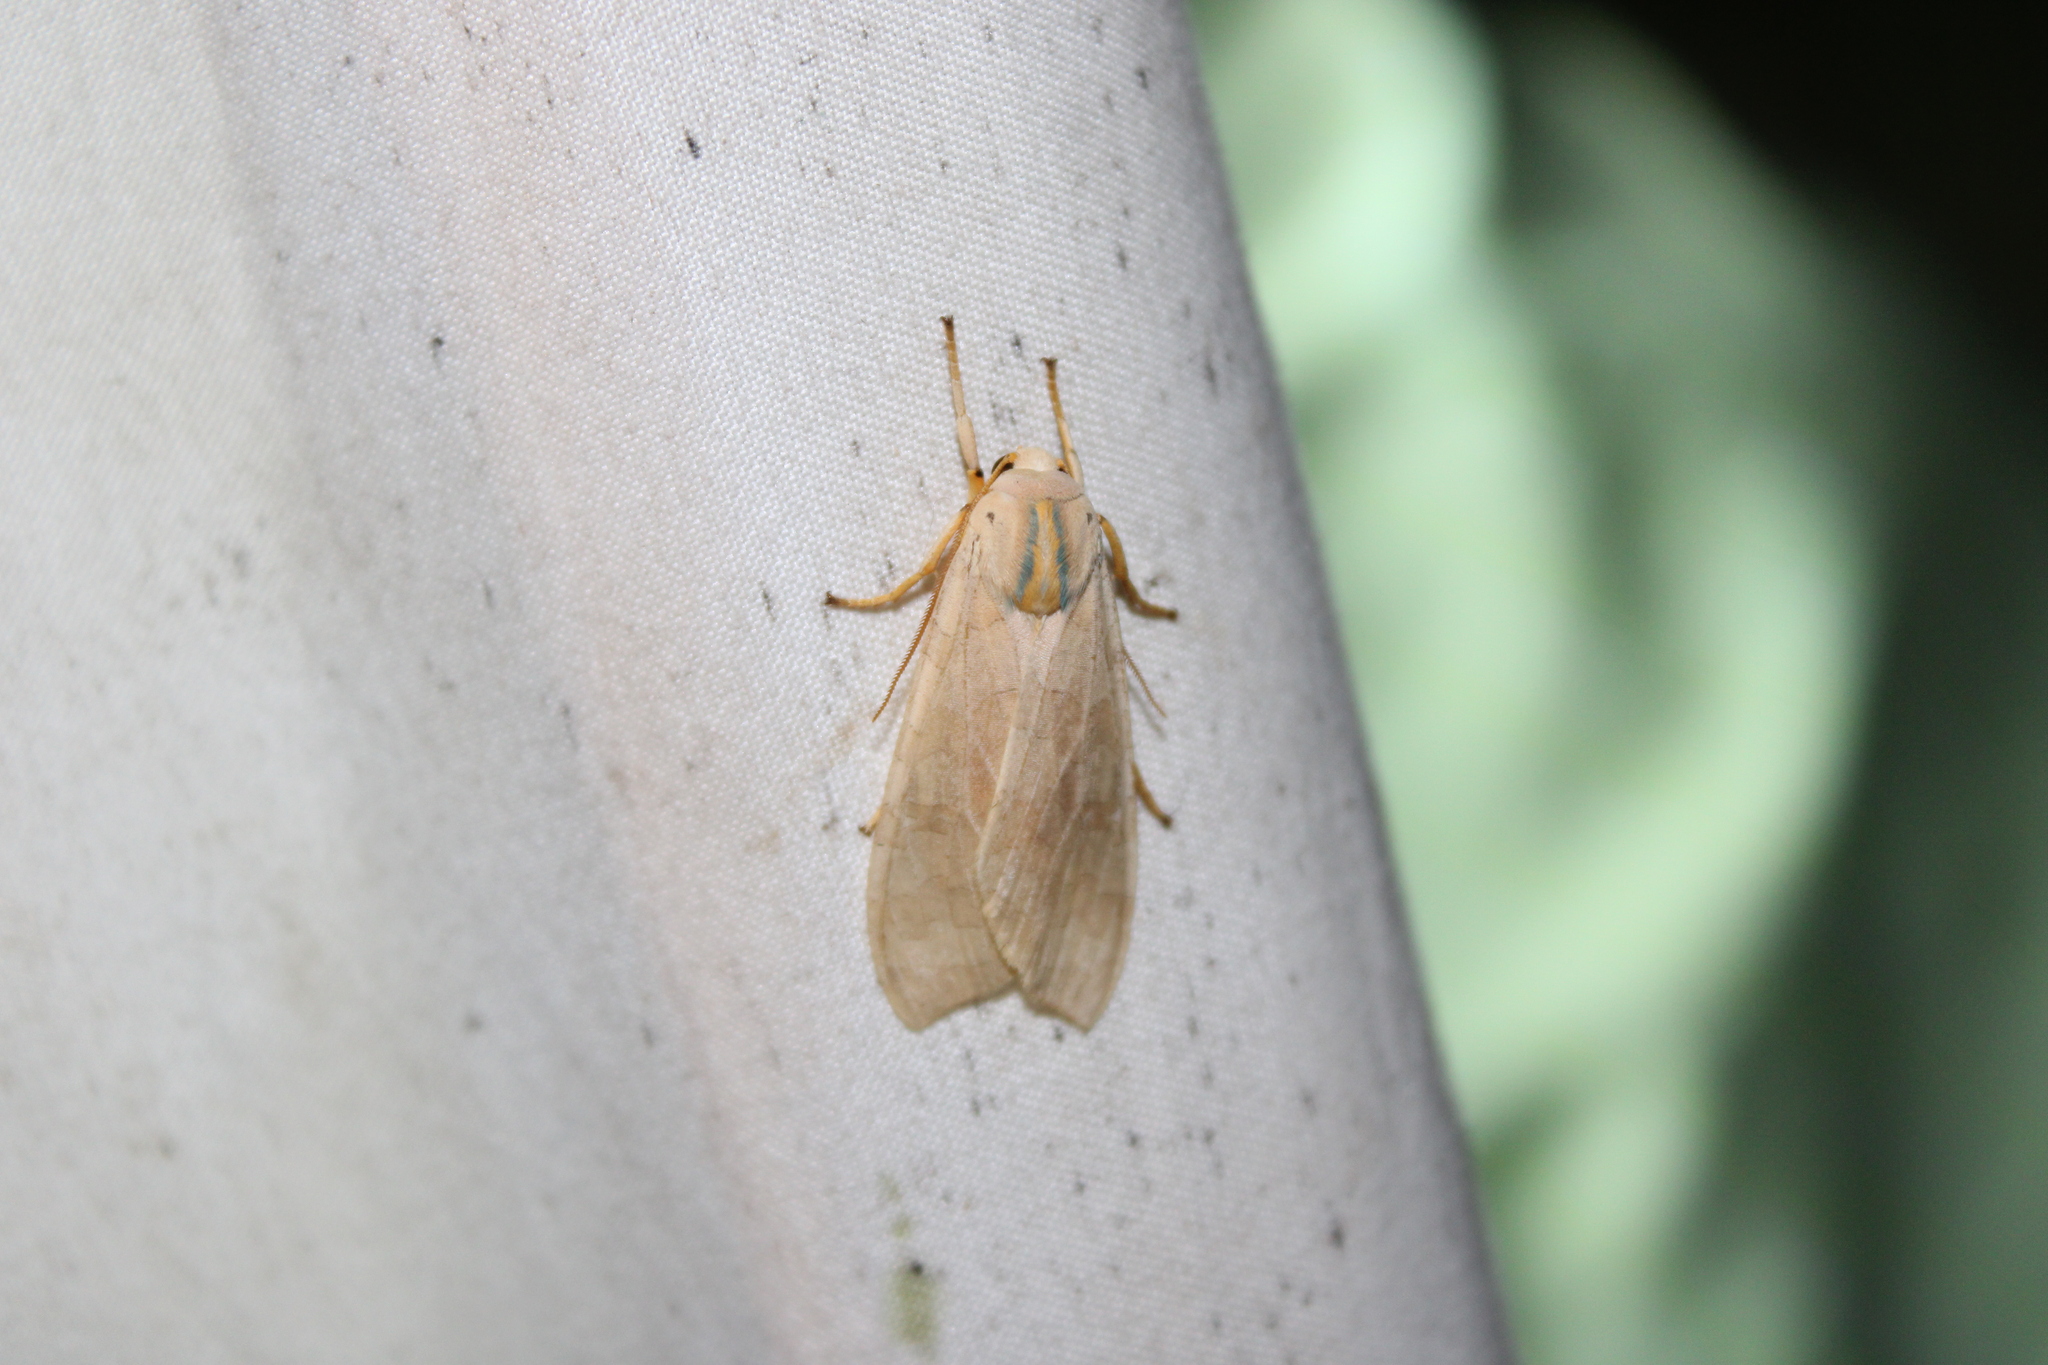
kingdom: Animalia
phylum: Arthropoda
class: Insecta
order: Lepidoptera
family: Erebidae
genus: Halysidota
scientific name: Halysidota
